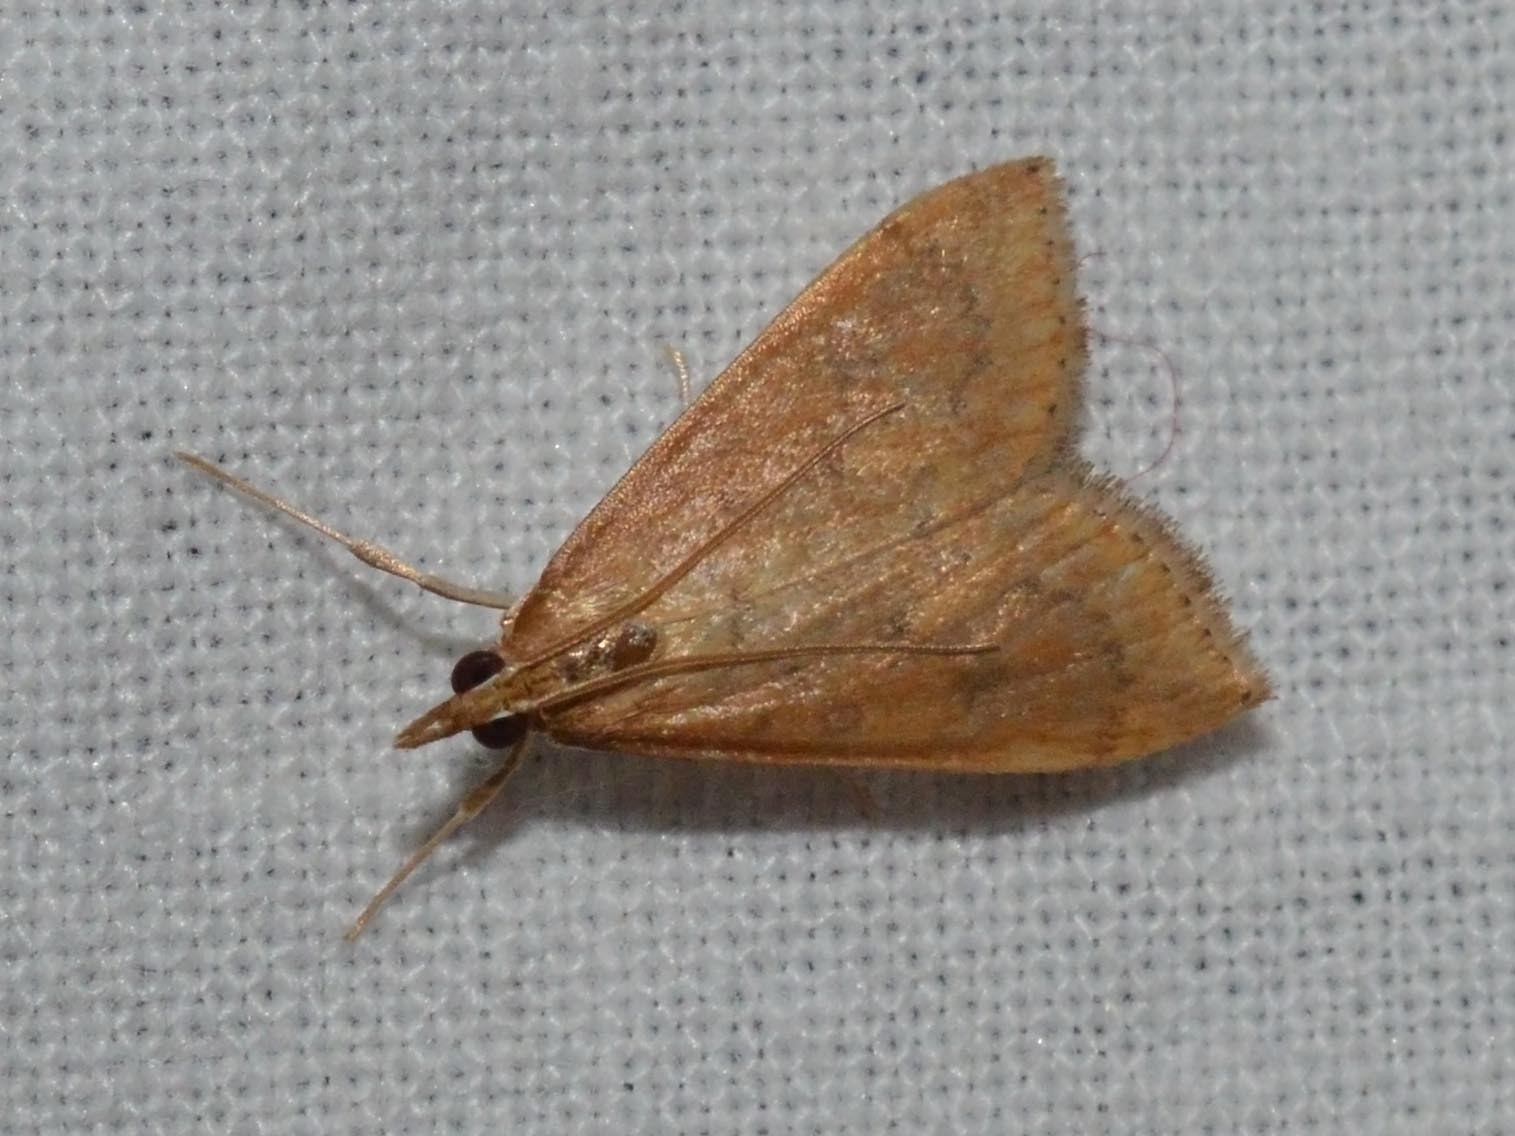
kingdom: Animalia
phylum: Arthropoda
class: Insecta
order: Lepidoptera
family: Crambidae
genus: Udea
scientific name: Udea ferrugalis
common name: Rusty dot
